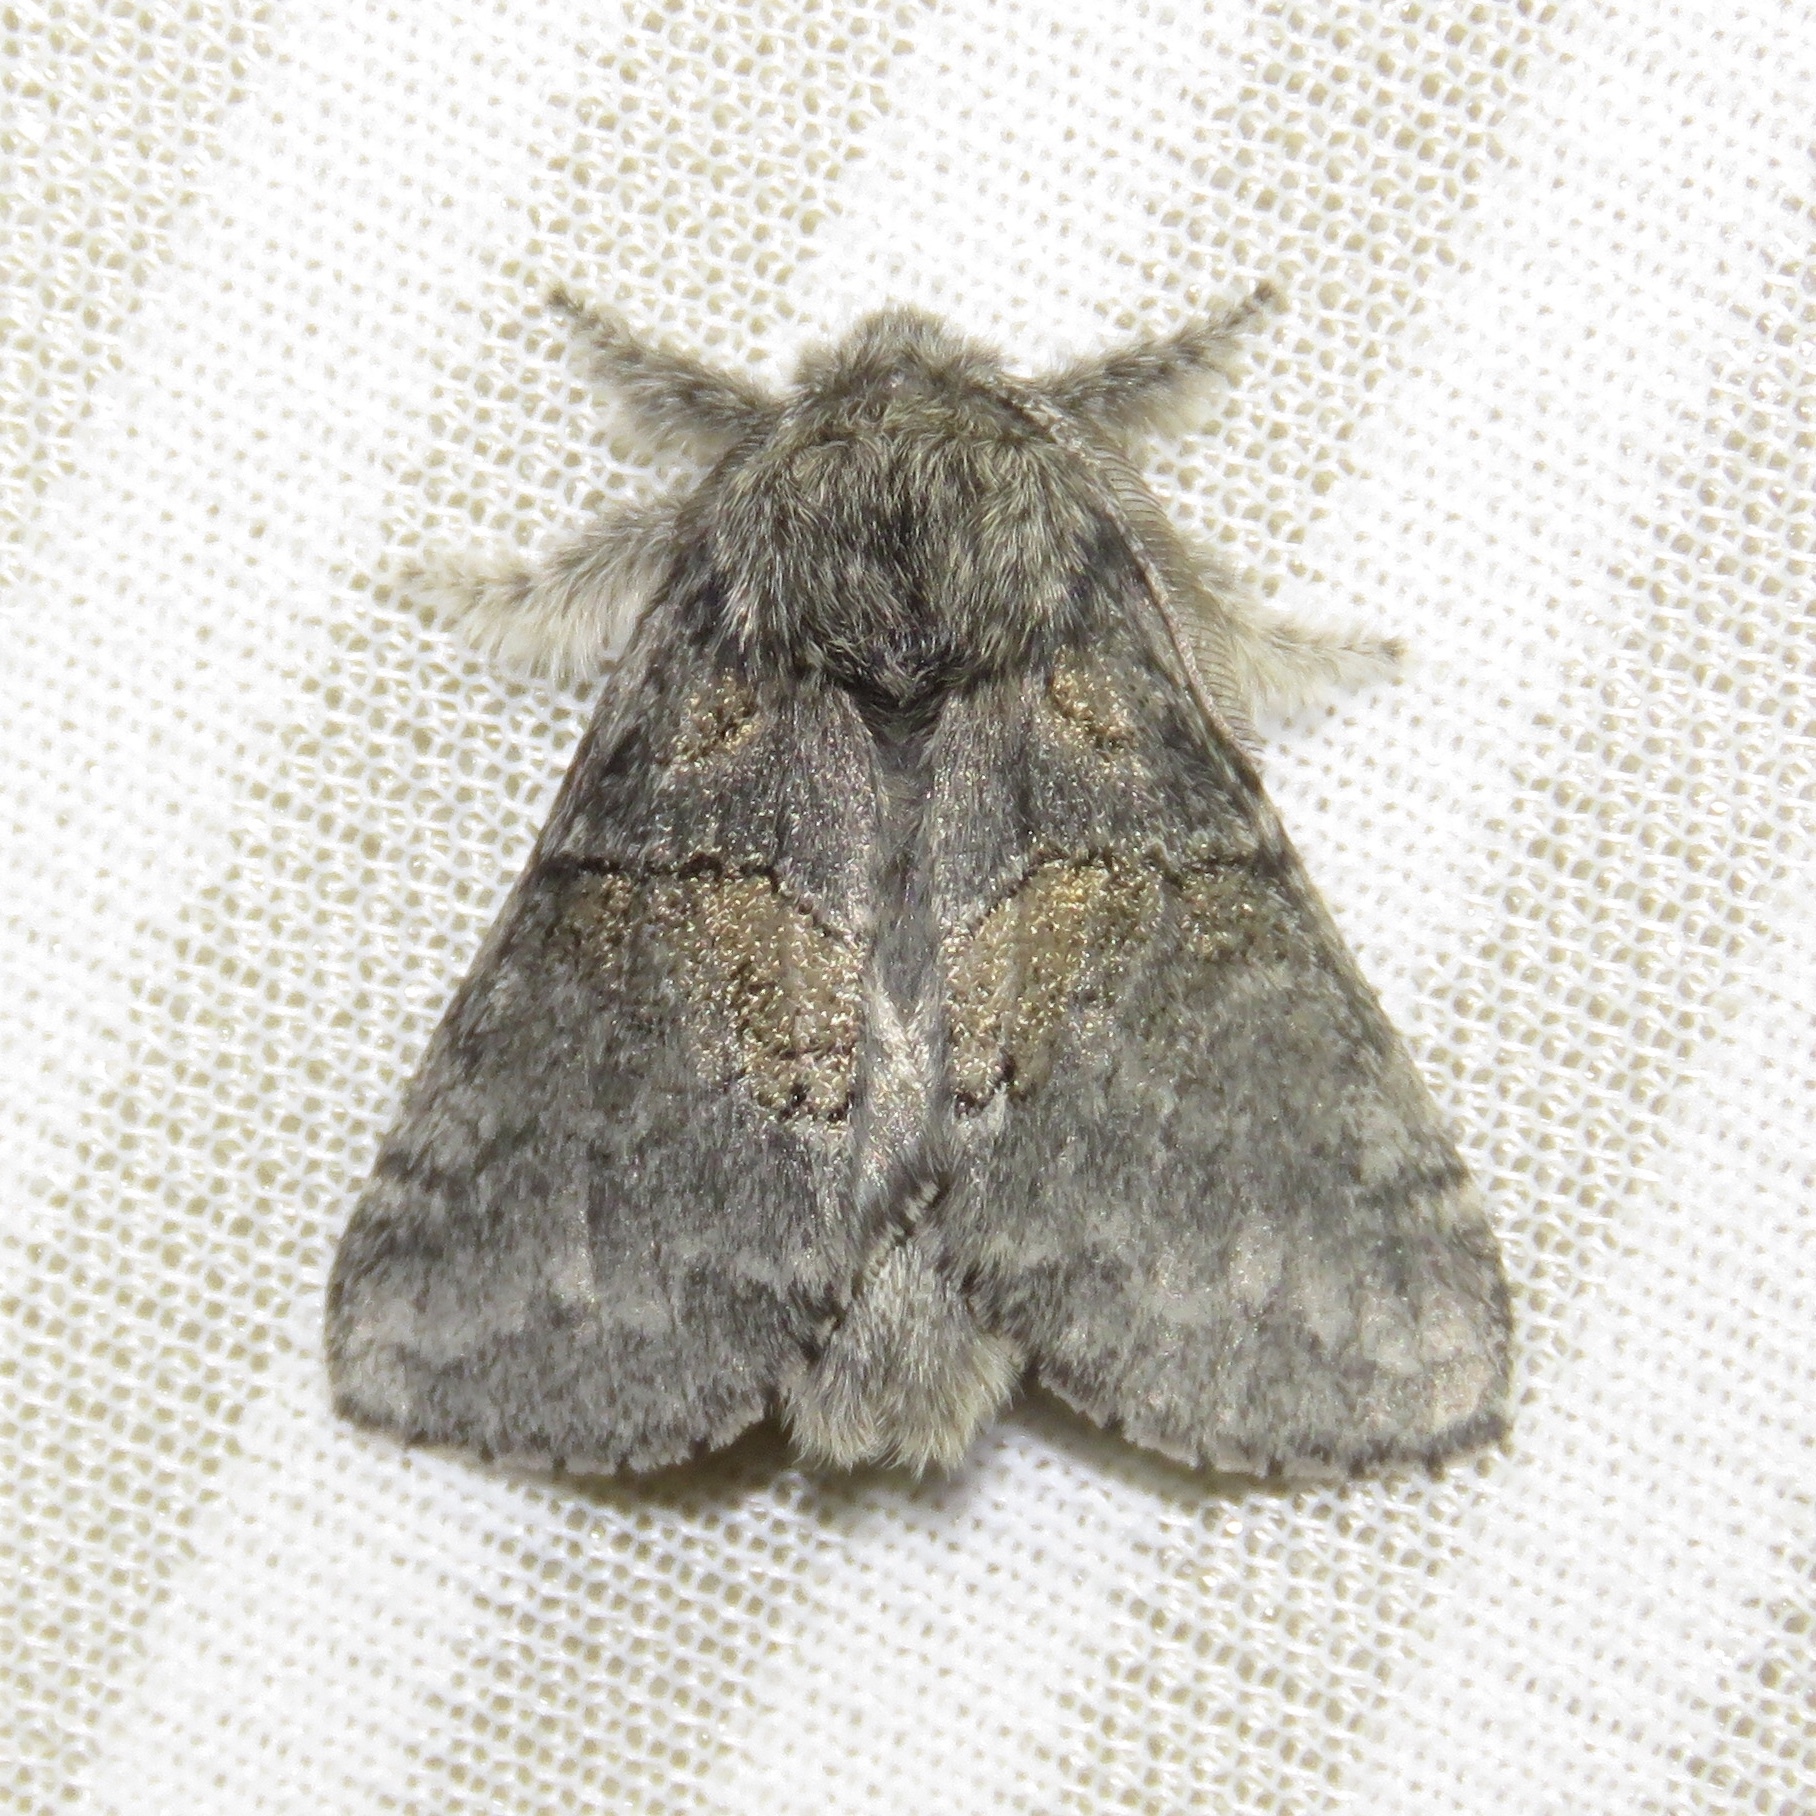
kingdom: Animalia
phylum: Arthropoda
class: Insecta
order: Lepidoptera
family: Notodontidae
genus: Gluphisia
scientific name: Gluphisia septentrionis
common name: Common gluphisia
